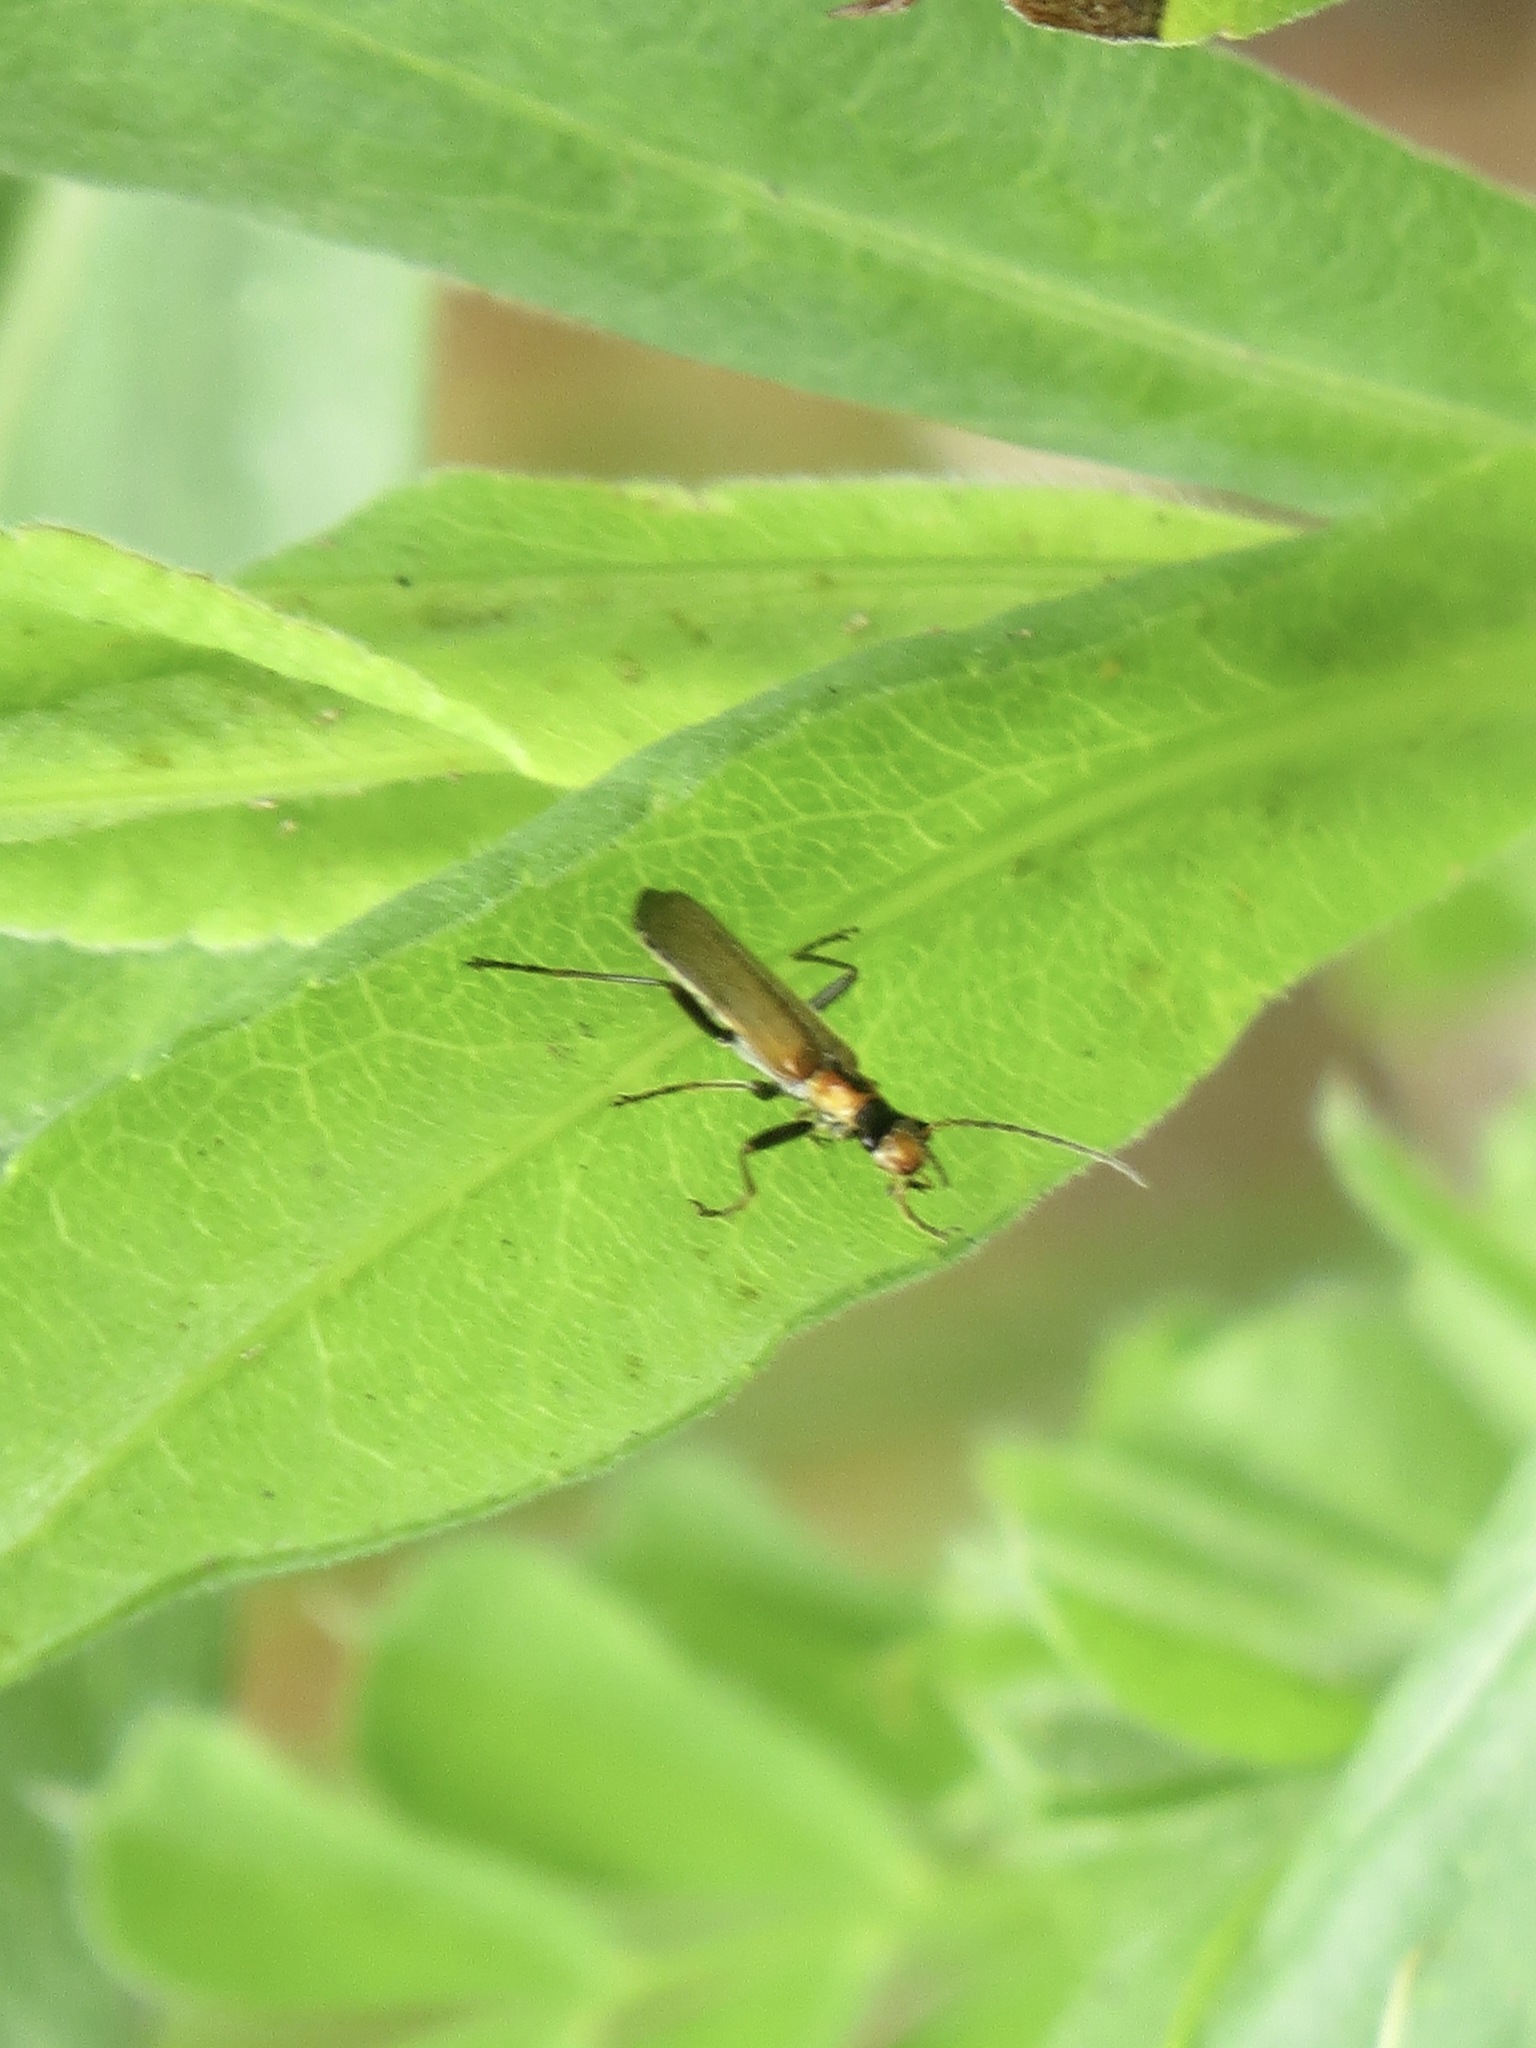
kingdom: Animalia
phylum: Arthropoda
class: Insecta
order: Coleoptera
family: Cantharidae
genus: Dichelotarsus
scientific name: Dichelotarsus cavicollis
